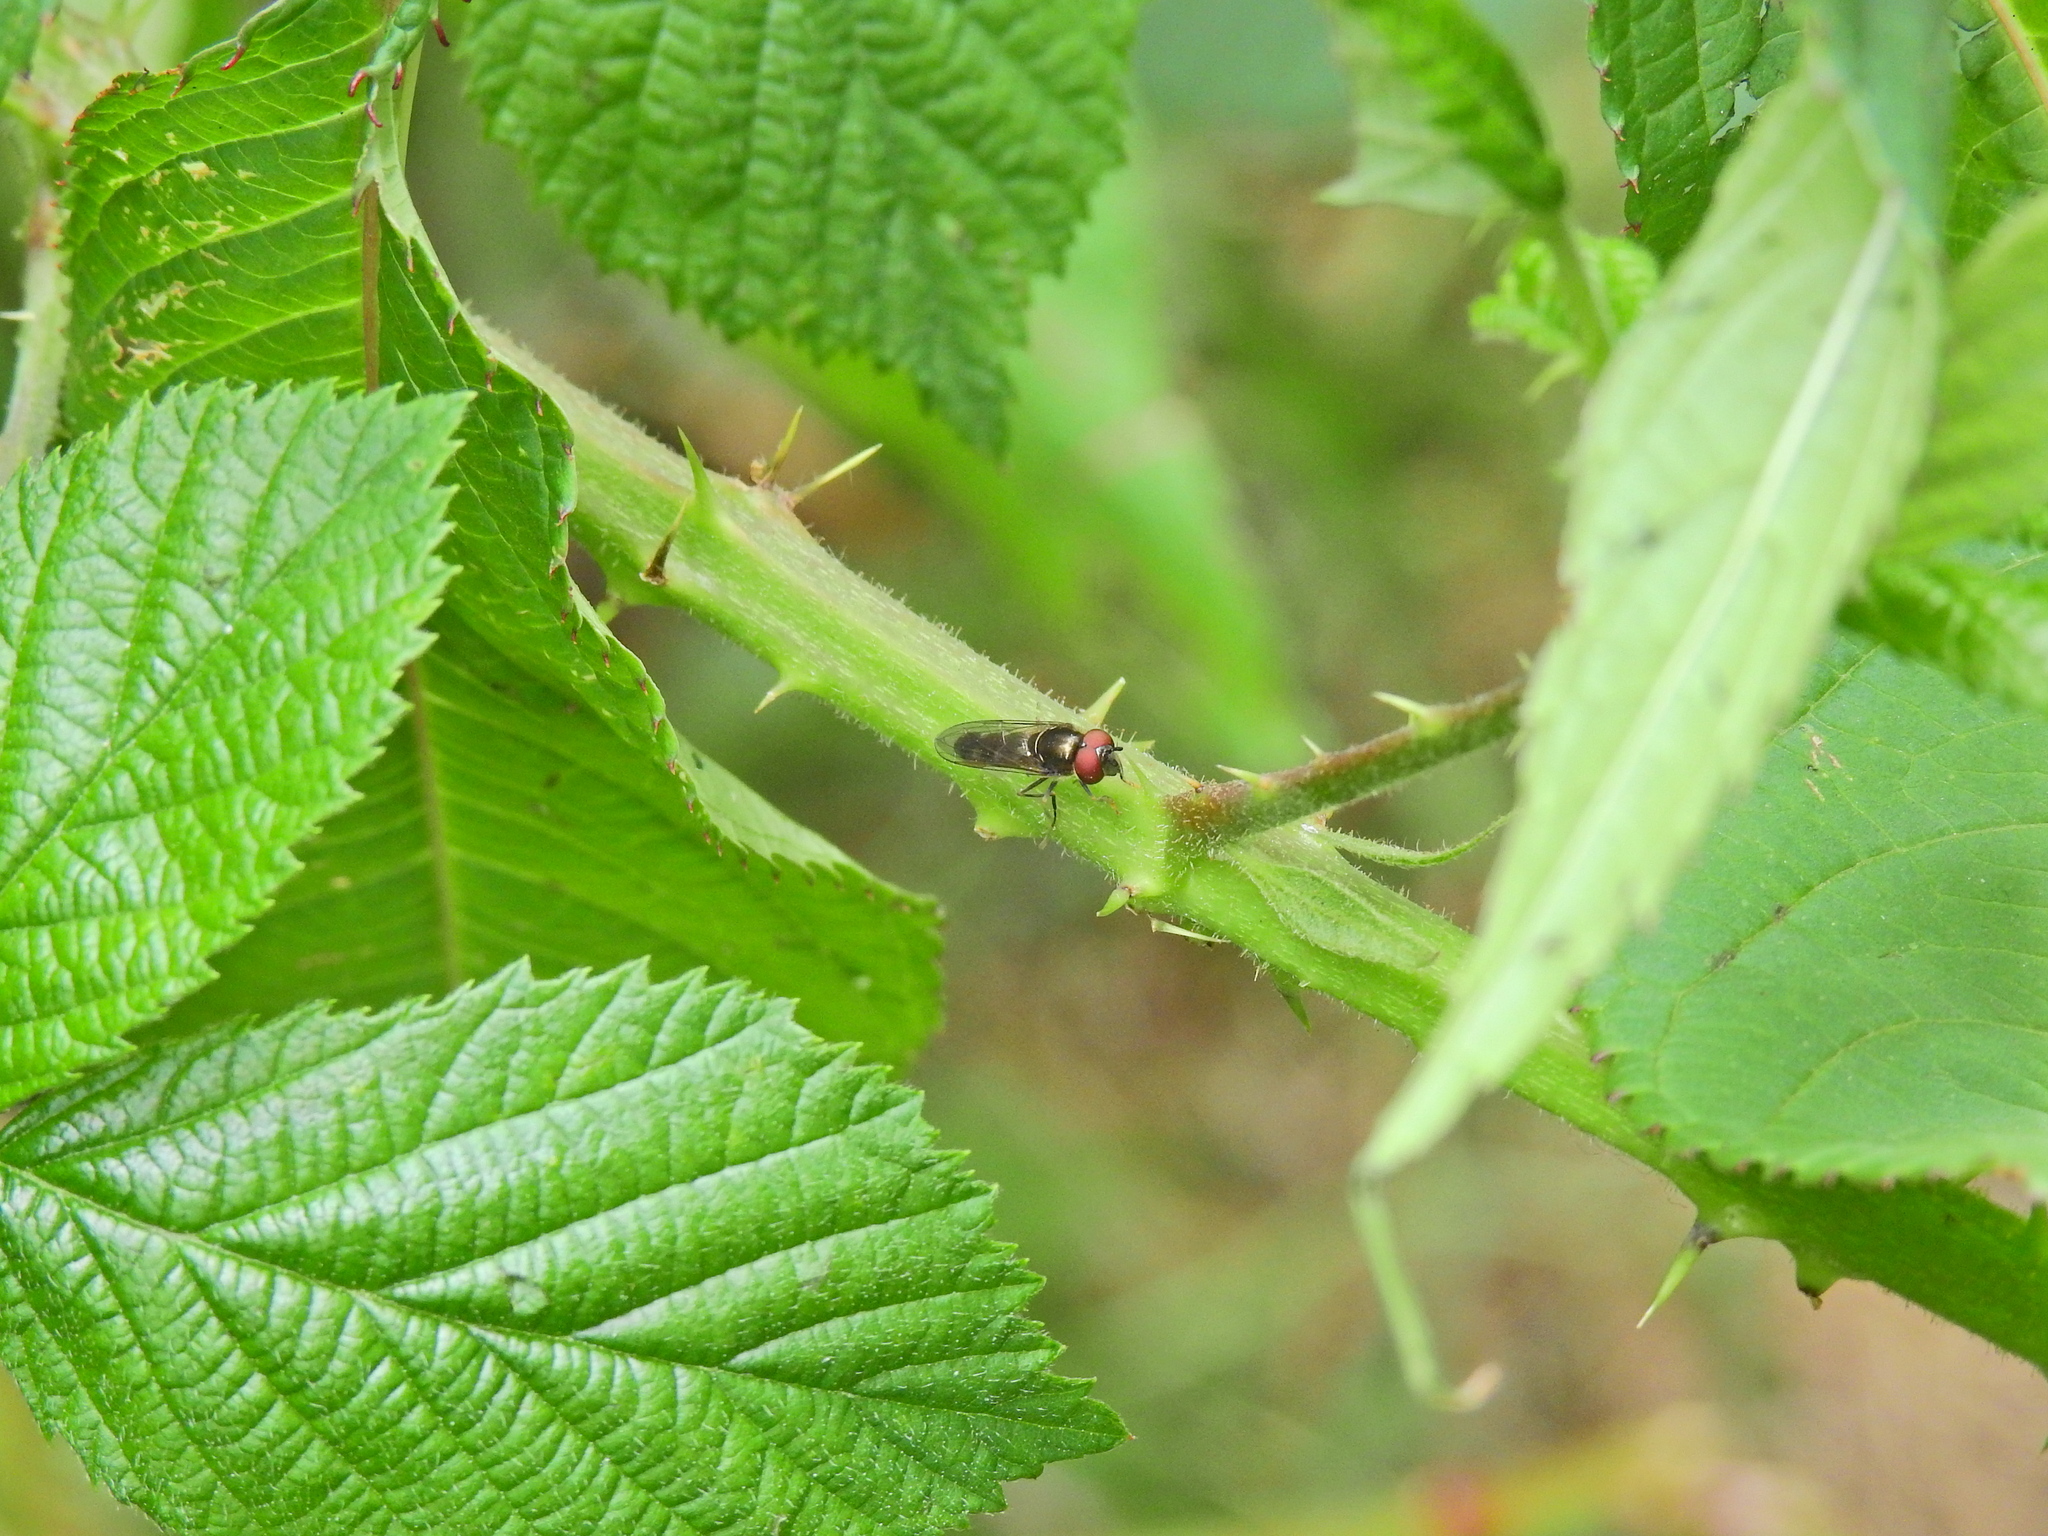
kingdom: Animalia
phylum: Arthropoda
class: Insecta
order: Diptera
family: Syrphidae
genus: Platycheirus
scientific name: Platycheirus albimanus
